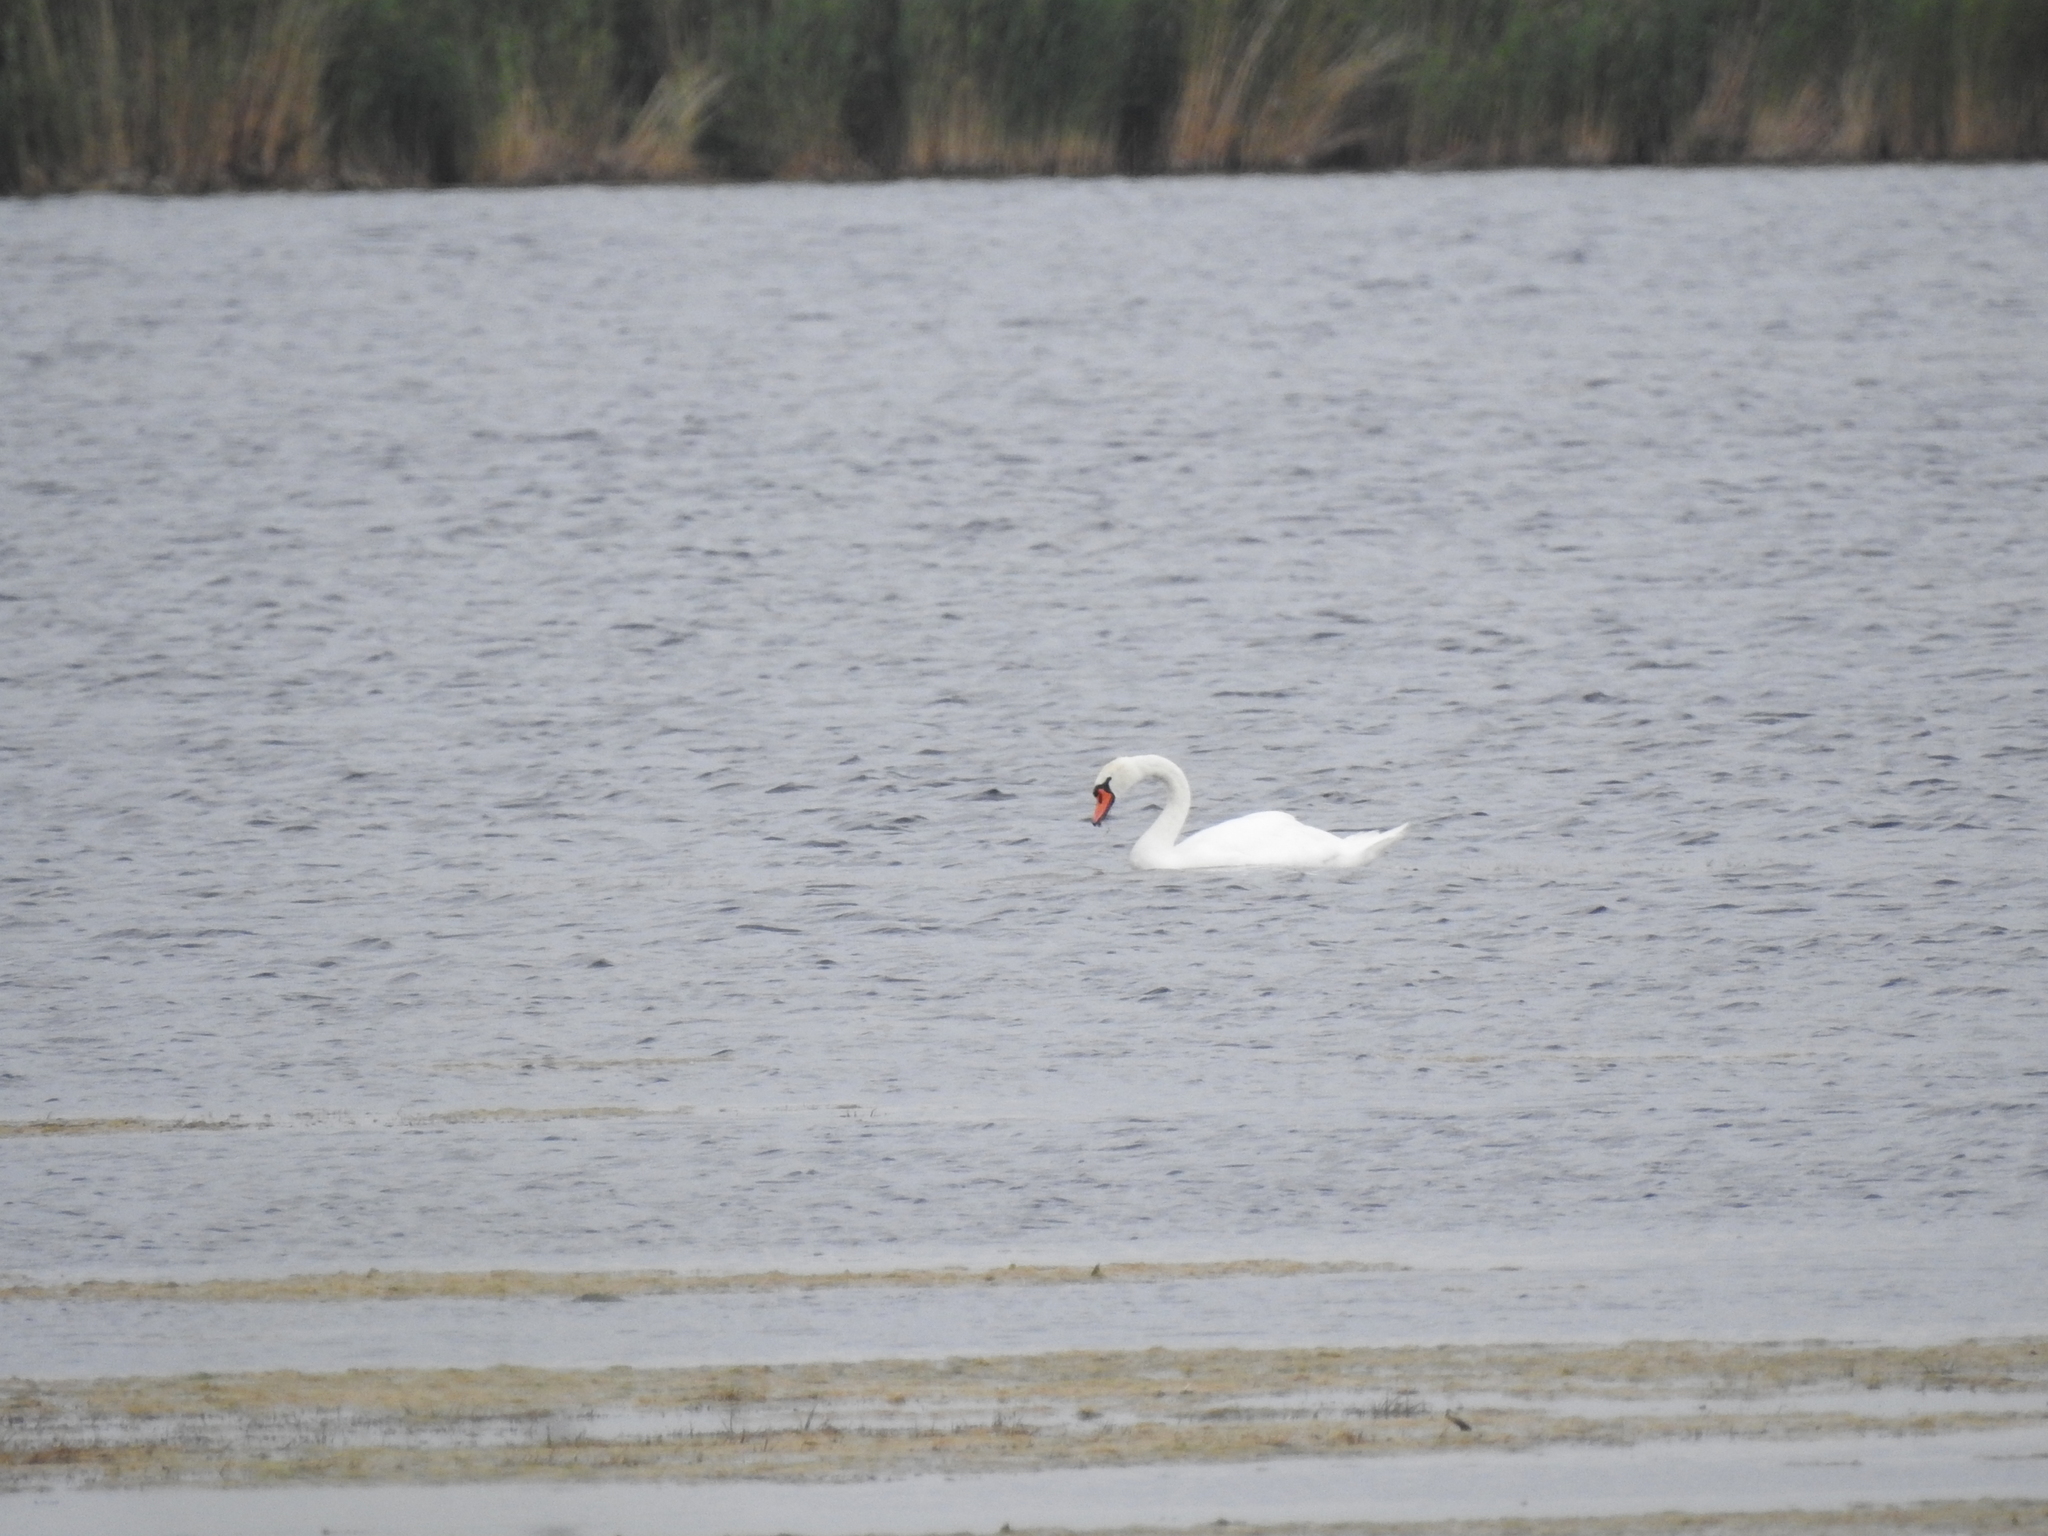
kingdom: Animalia
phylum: Chordata
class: Aves
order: Anseriformes
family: Anatidae
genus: Cygnus
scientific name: Cygnus olor
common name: Mute swan
